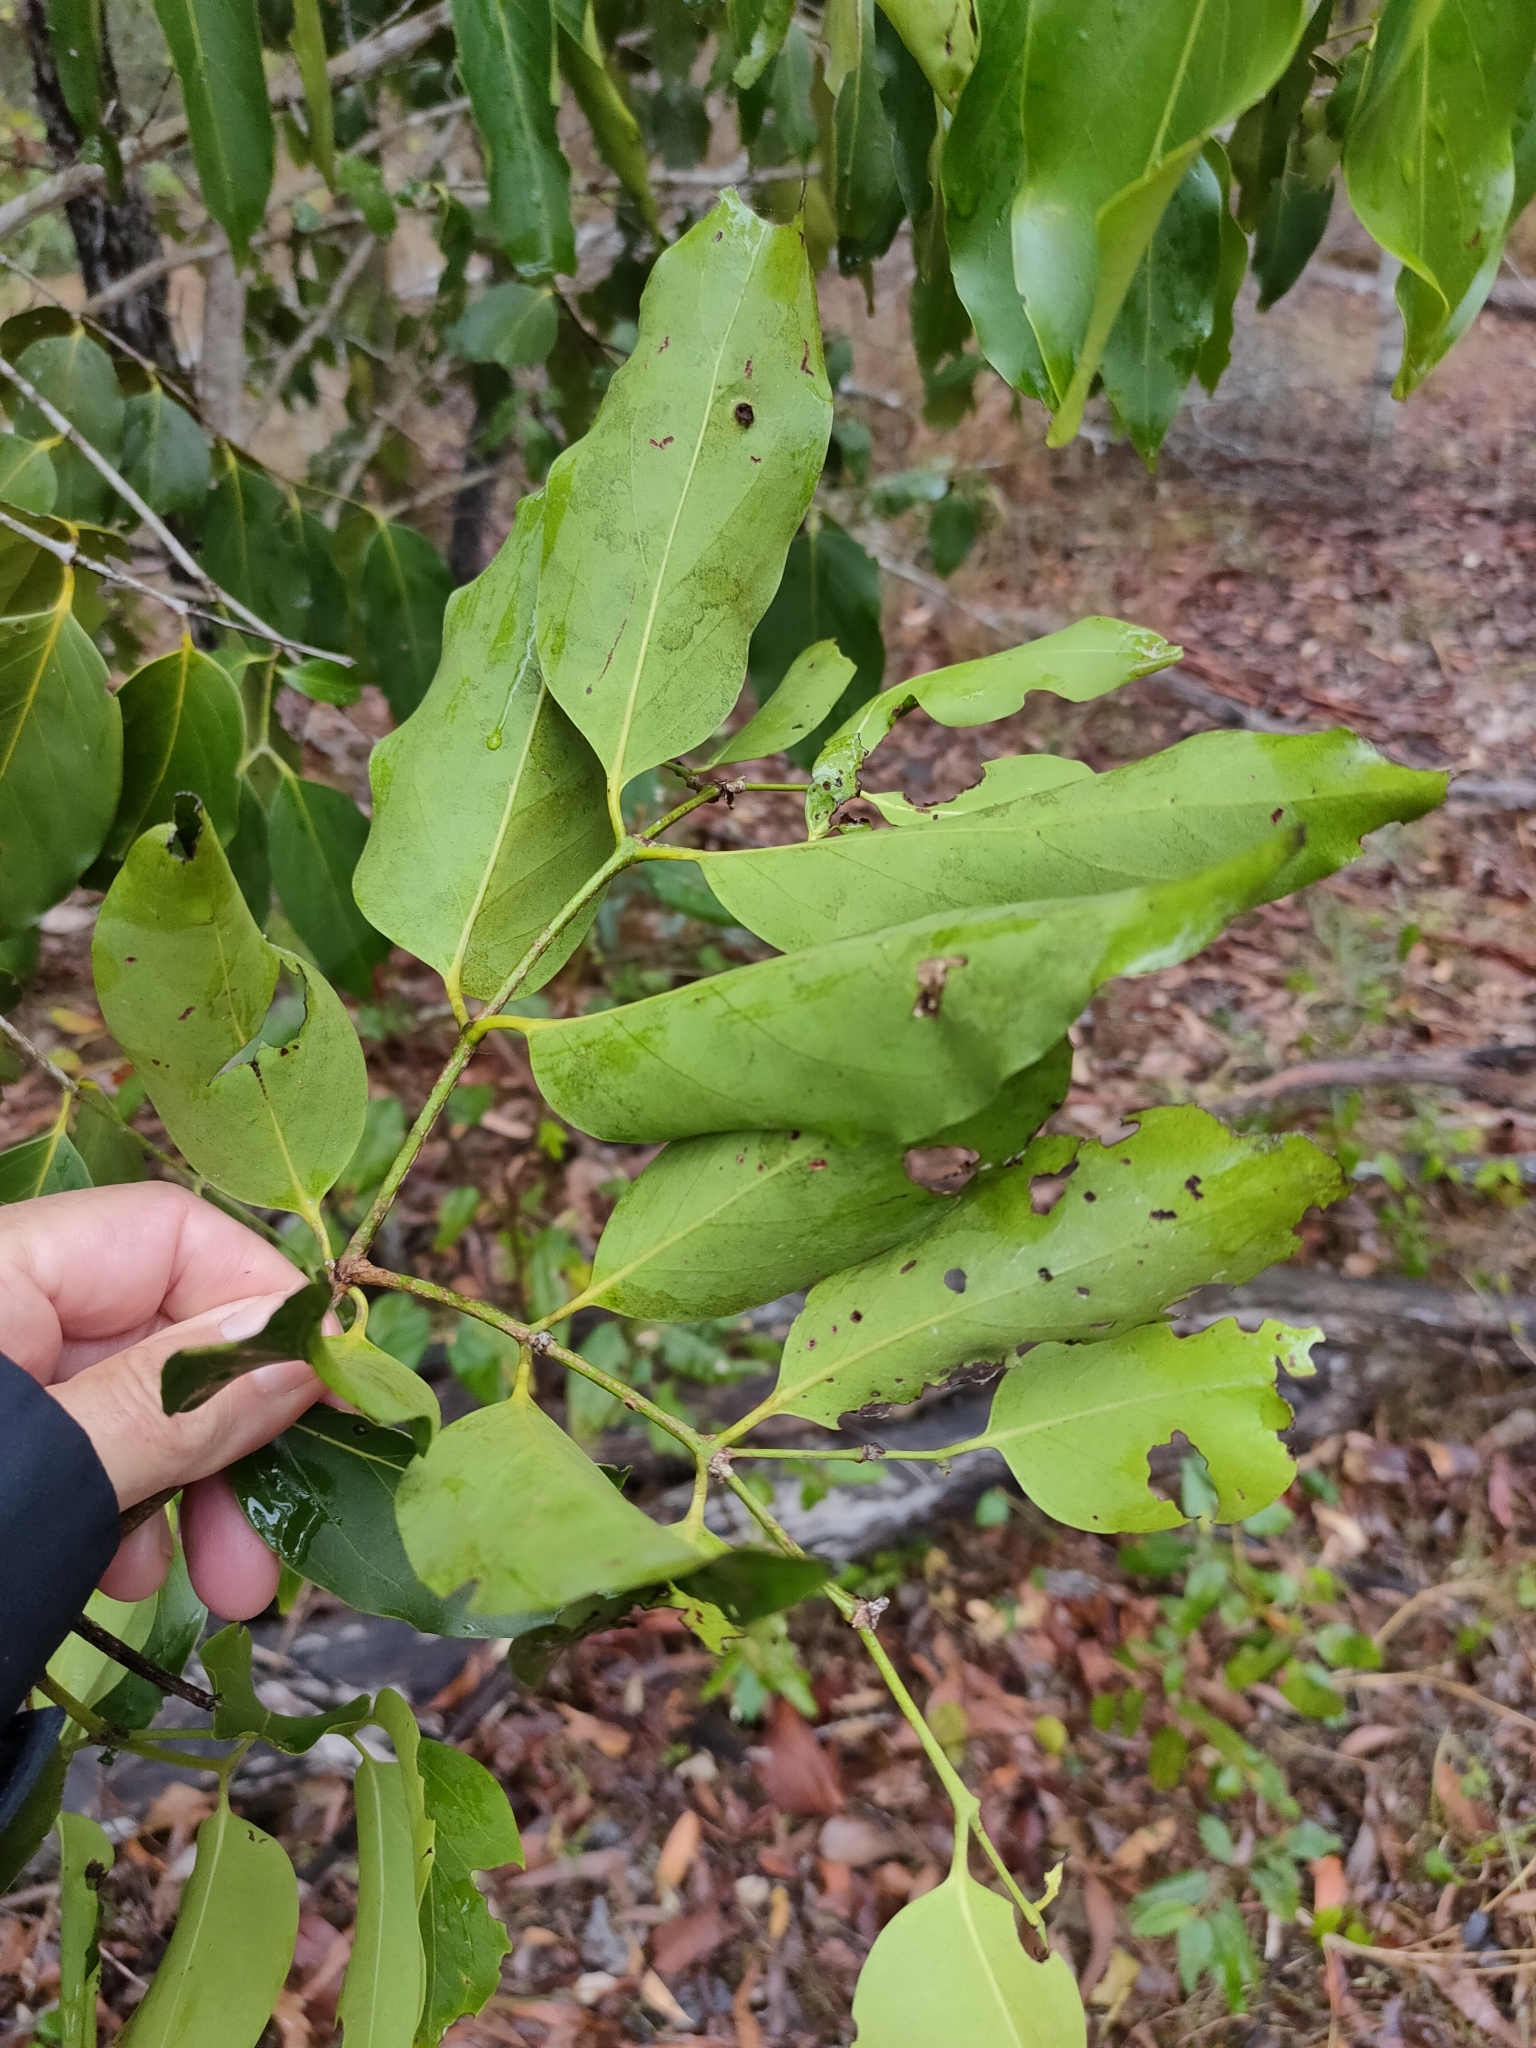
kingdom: Plantae
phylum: Tracheophyta
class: Magnoliopsida
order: Gentianales
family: Rubiaceae
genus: Psydrax
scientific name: Psydrax lamprophyllus
